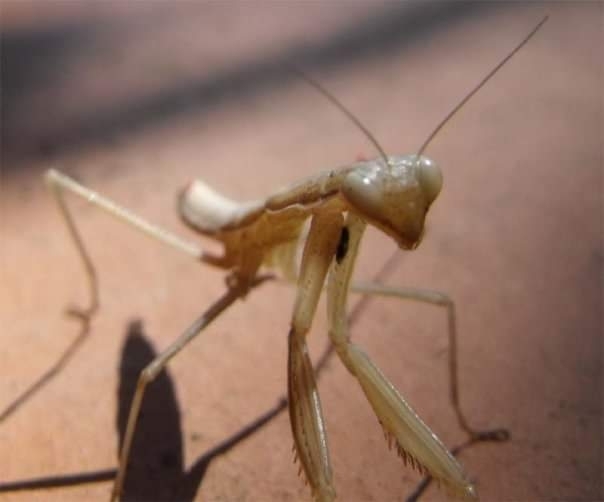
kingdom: Animalia
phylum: Arthropoda
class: Insecta
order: Mantodea
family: Mantidae
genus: Mantis
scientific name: Mantis religiosa
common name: Praying mantis
